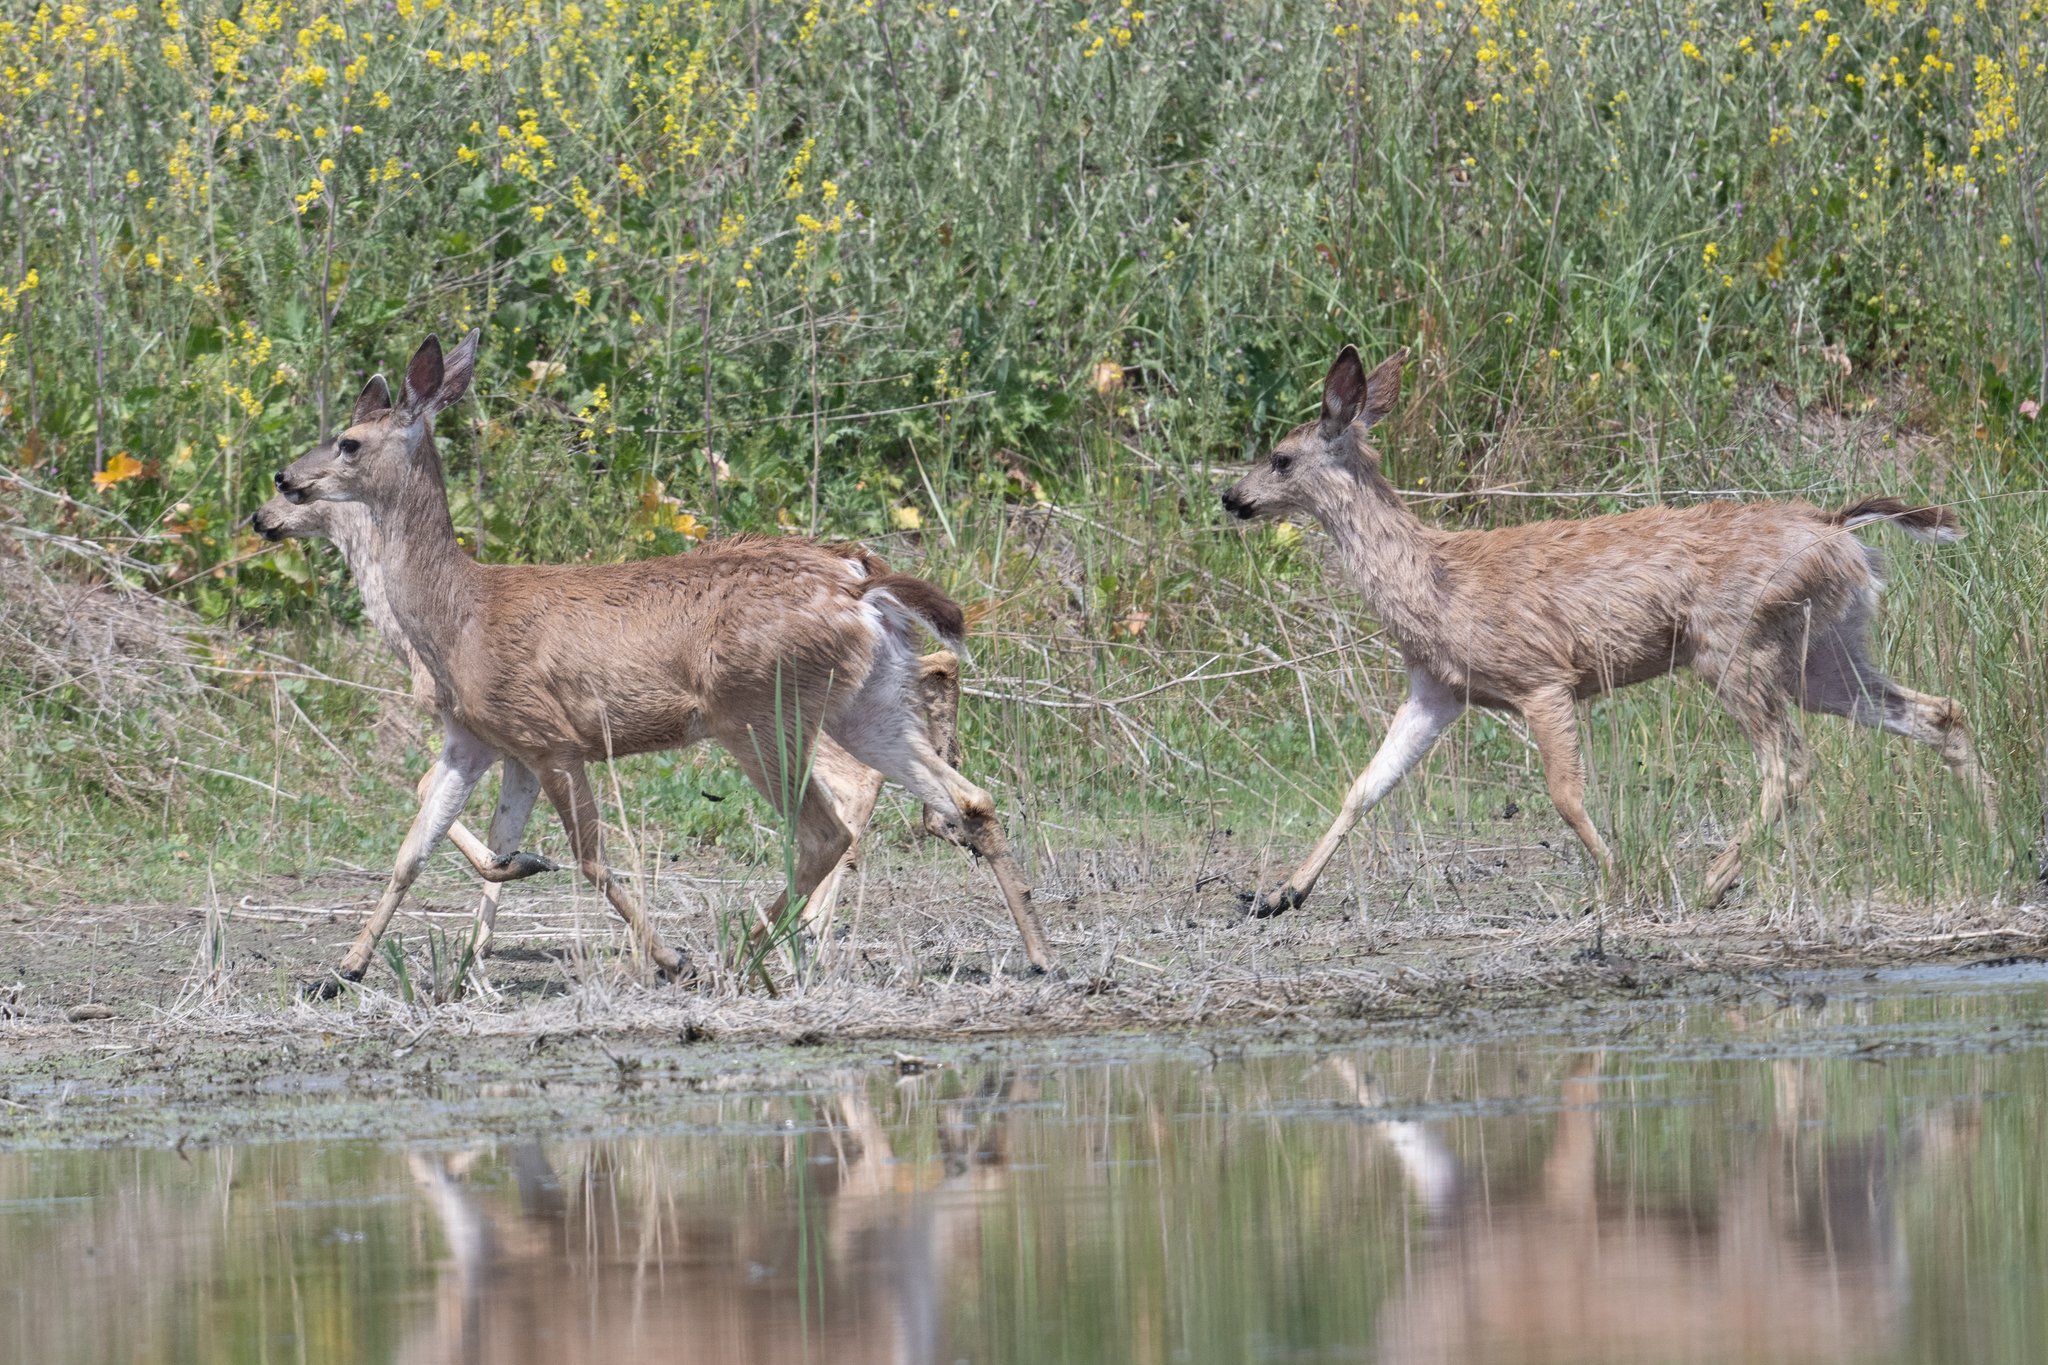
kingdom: Animalia
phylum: Chordata
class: Mammalia
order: Artiodactyla
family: Cervidae
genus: Odocoileus
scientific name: Odocoileus hemionus
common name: Mule deer
